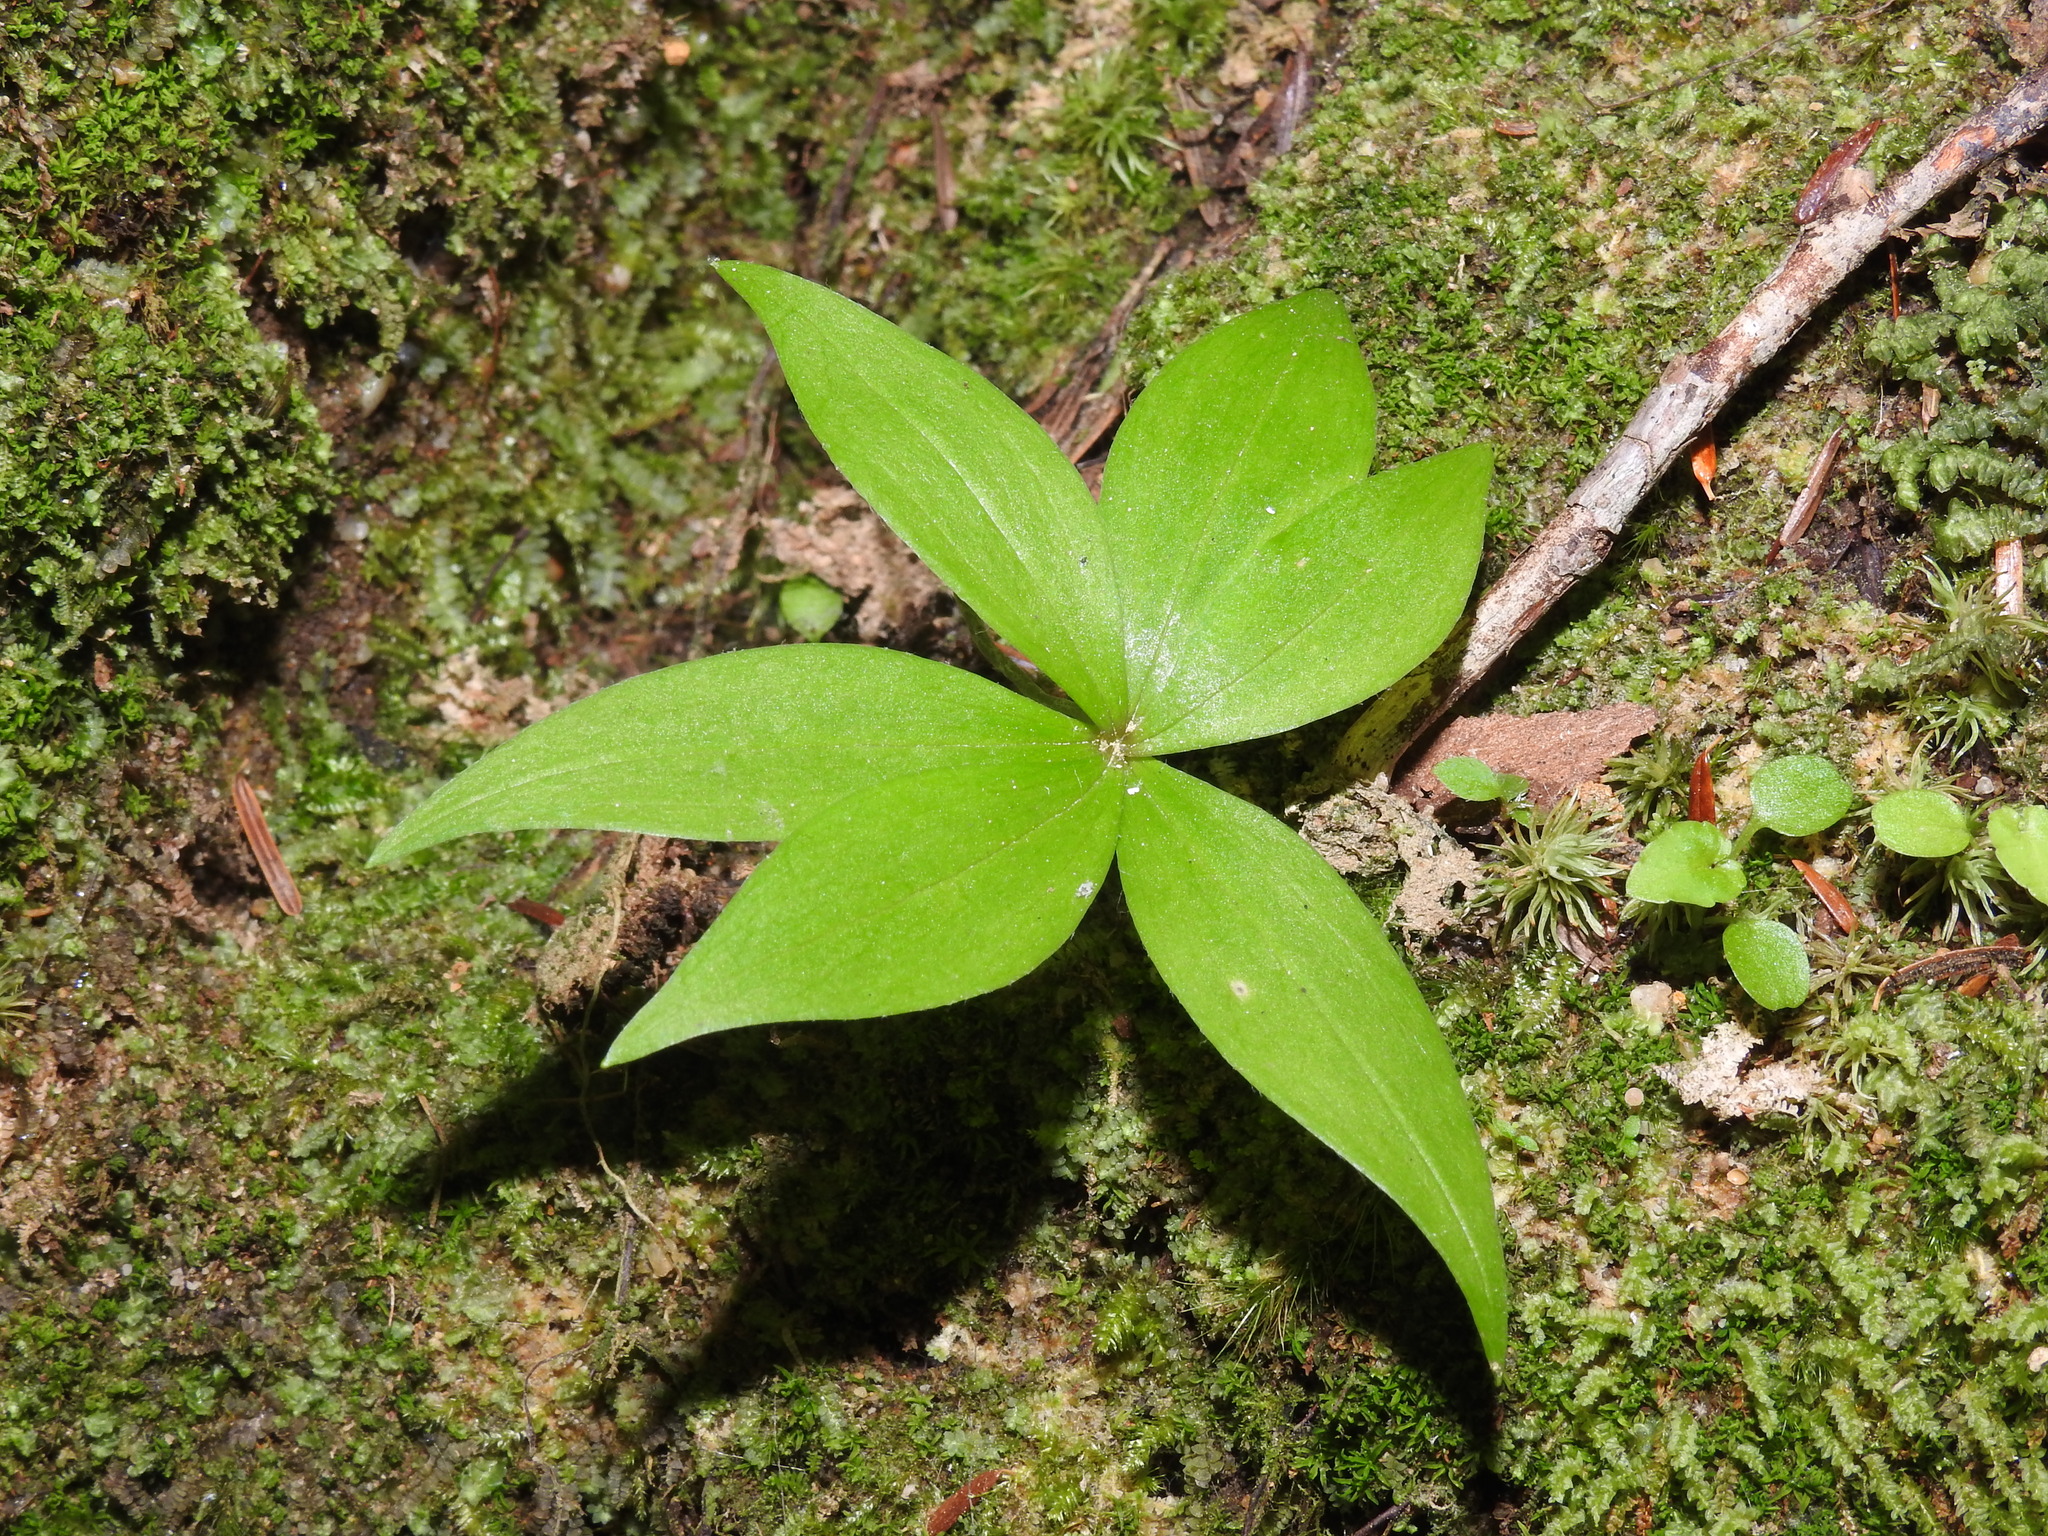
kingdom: Plantae
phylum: Tracheophyta
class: Liliopsida
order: Liliales
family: Liliaceae
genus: Medeola
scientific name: Medeola virginiana
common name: Indian cucumber-root
